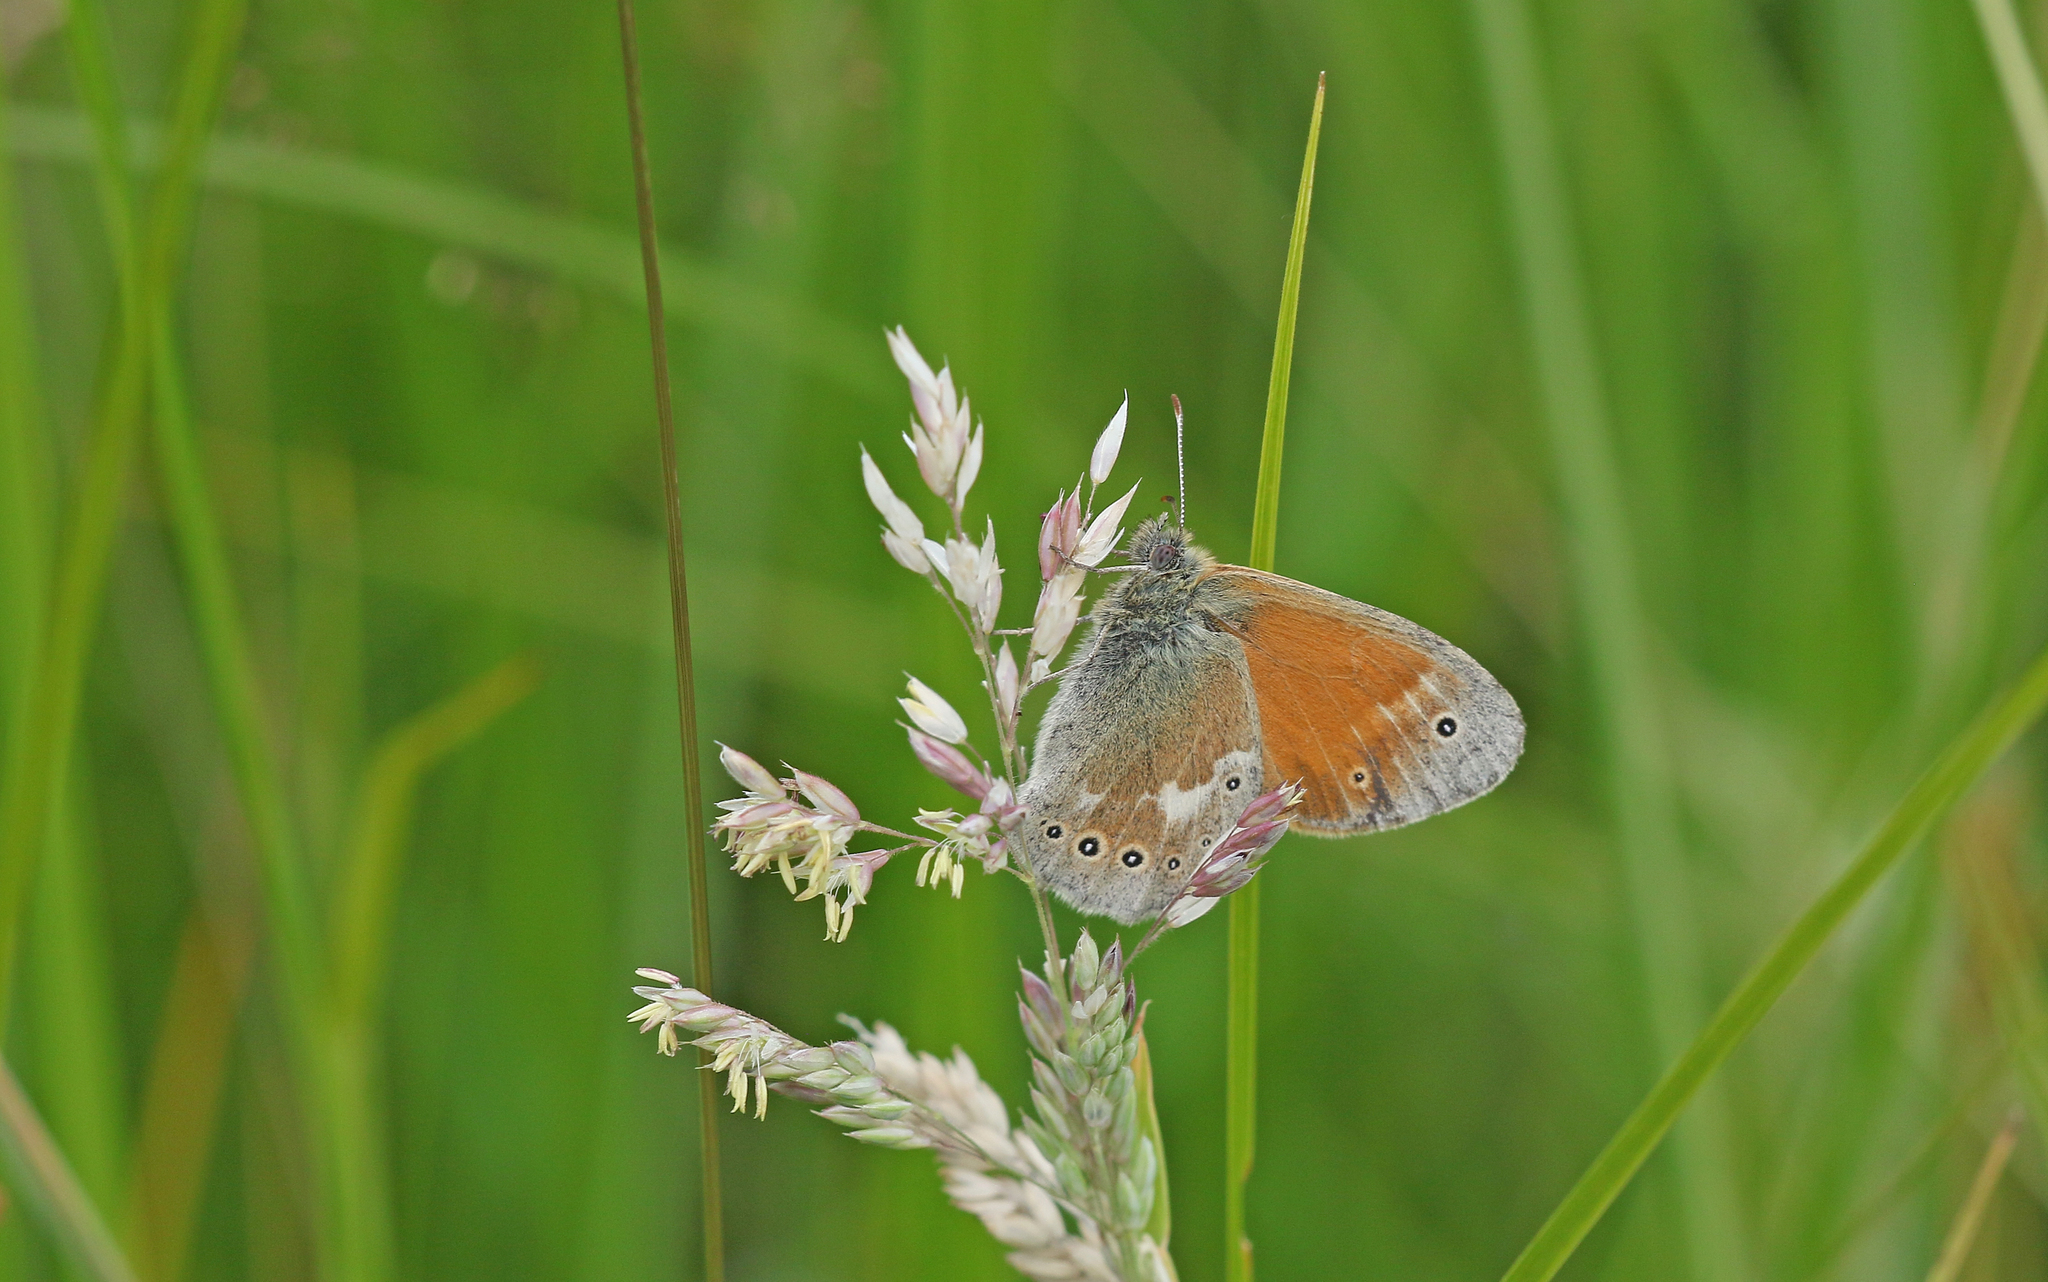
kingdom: Animalia
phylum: Arthropoda
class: Insecta
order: Lepidoptera
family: Nymphalidae
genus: Coenonympha
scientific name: Coenonympha tullia
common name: Large heath
